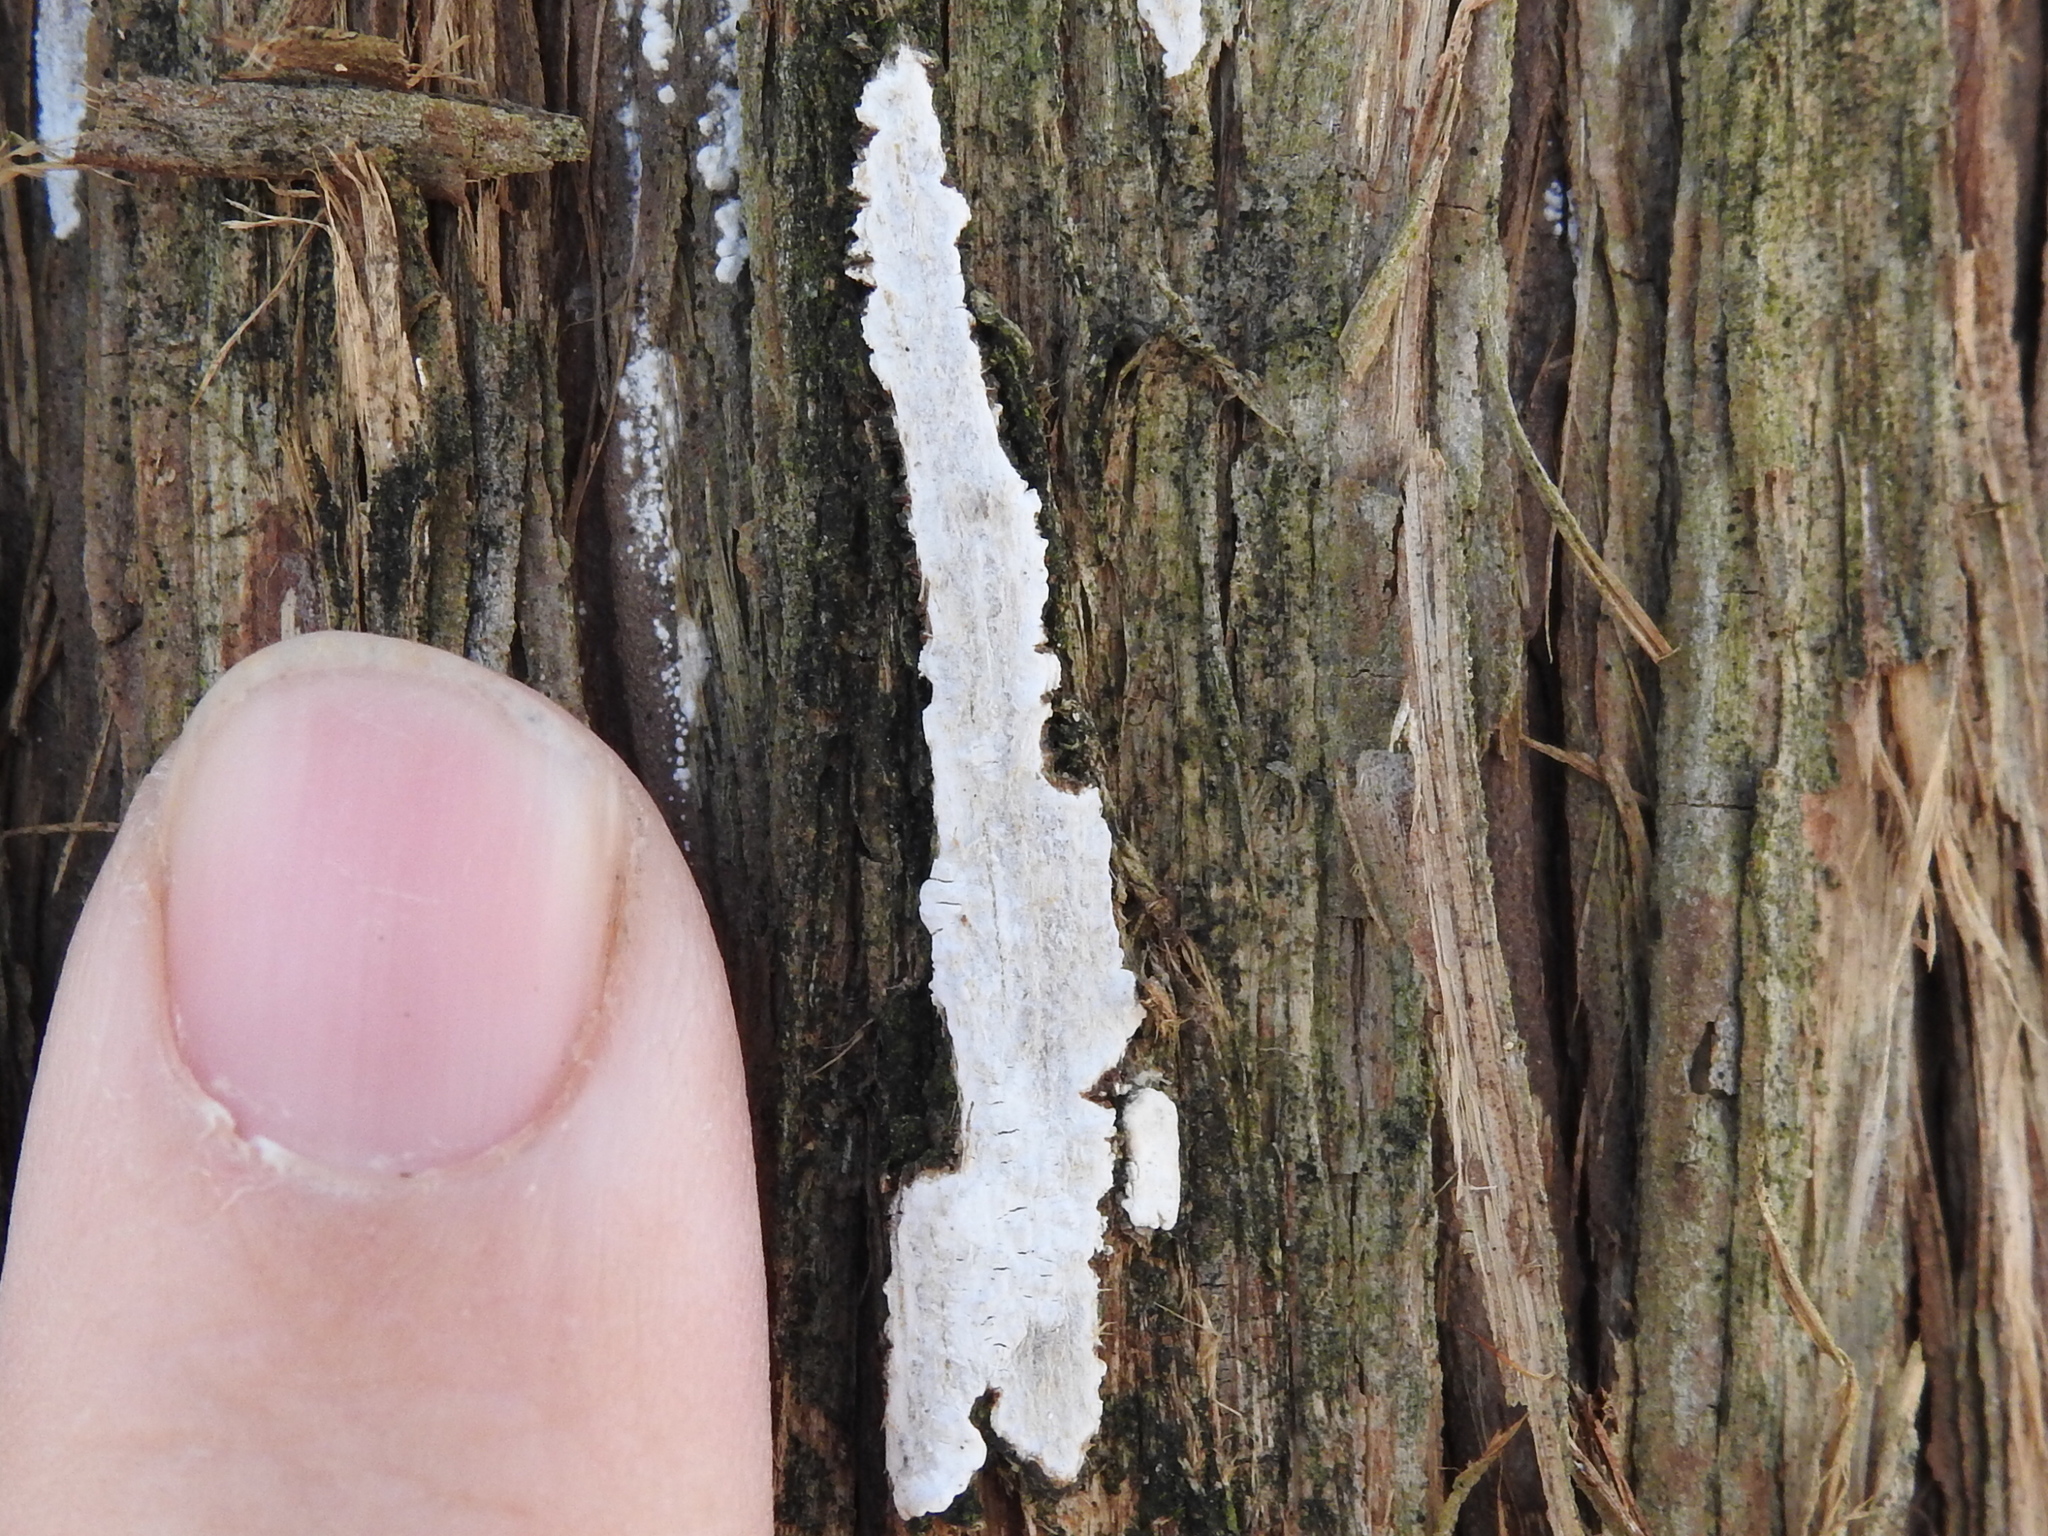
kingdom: Fungi
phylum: Basidiomycota
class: Agaricomycetes
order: Agaricales
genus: Dendrothele
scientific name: Dendrothele nivosa
